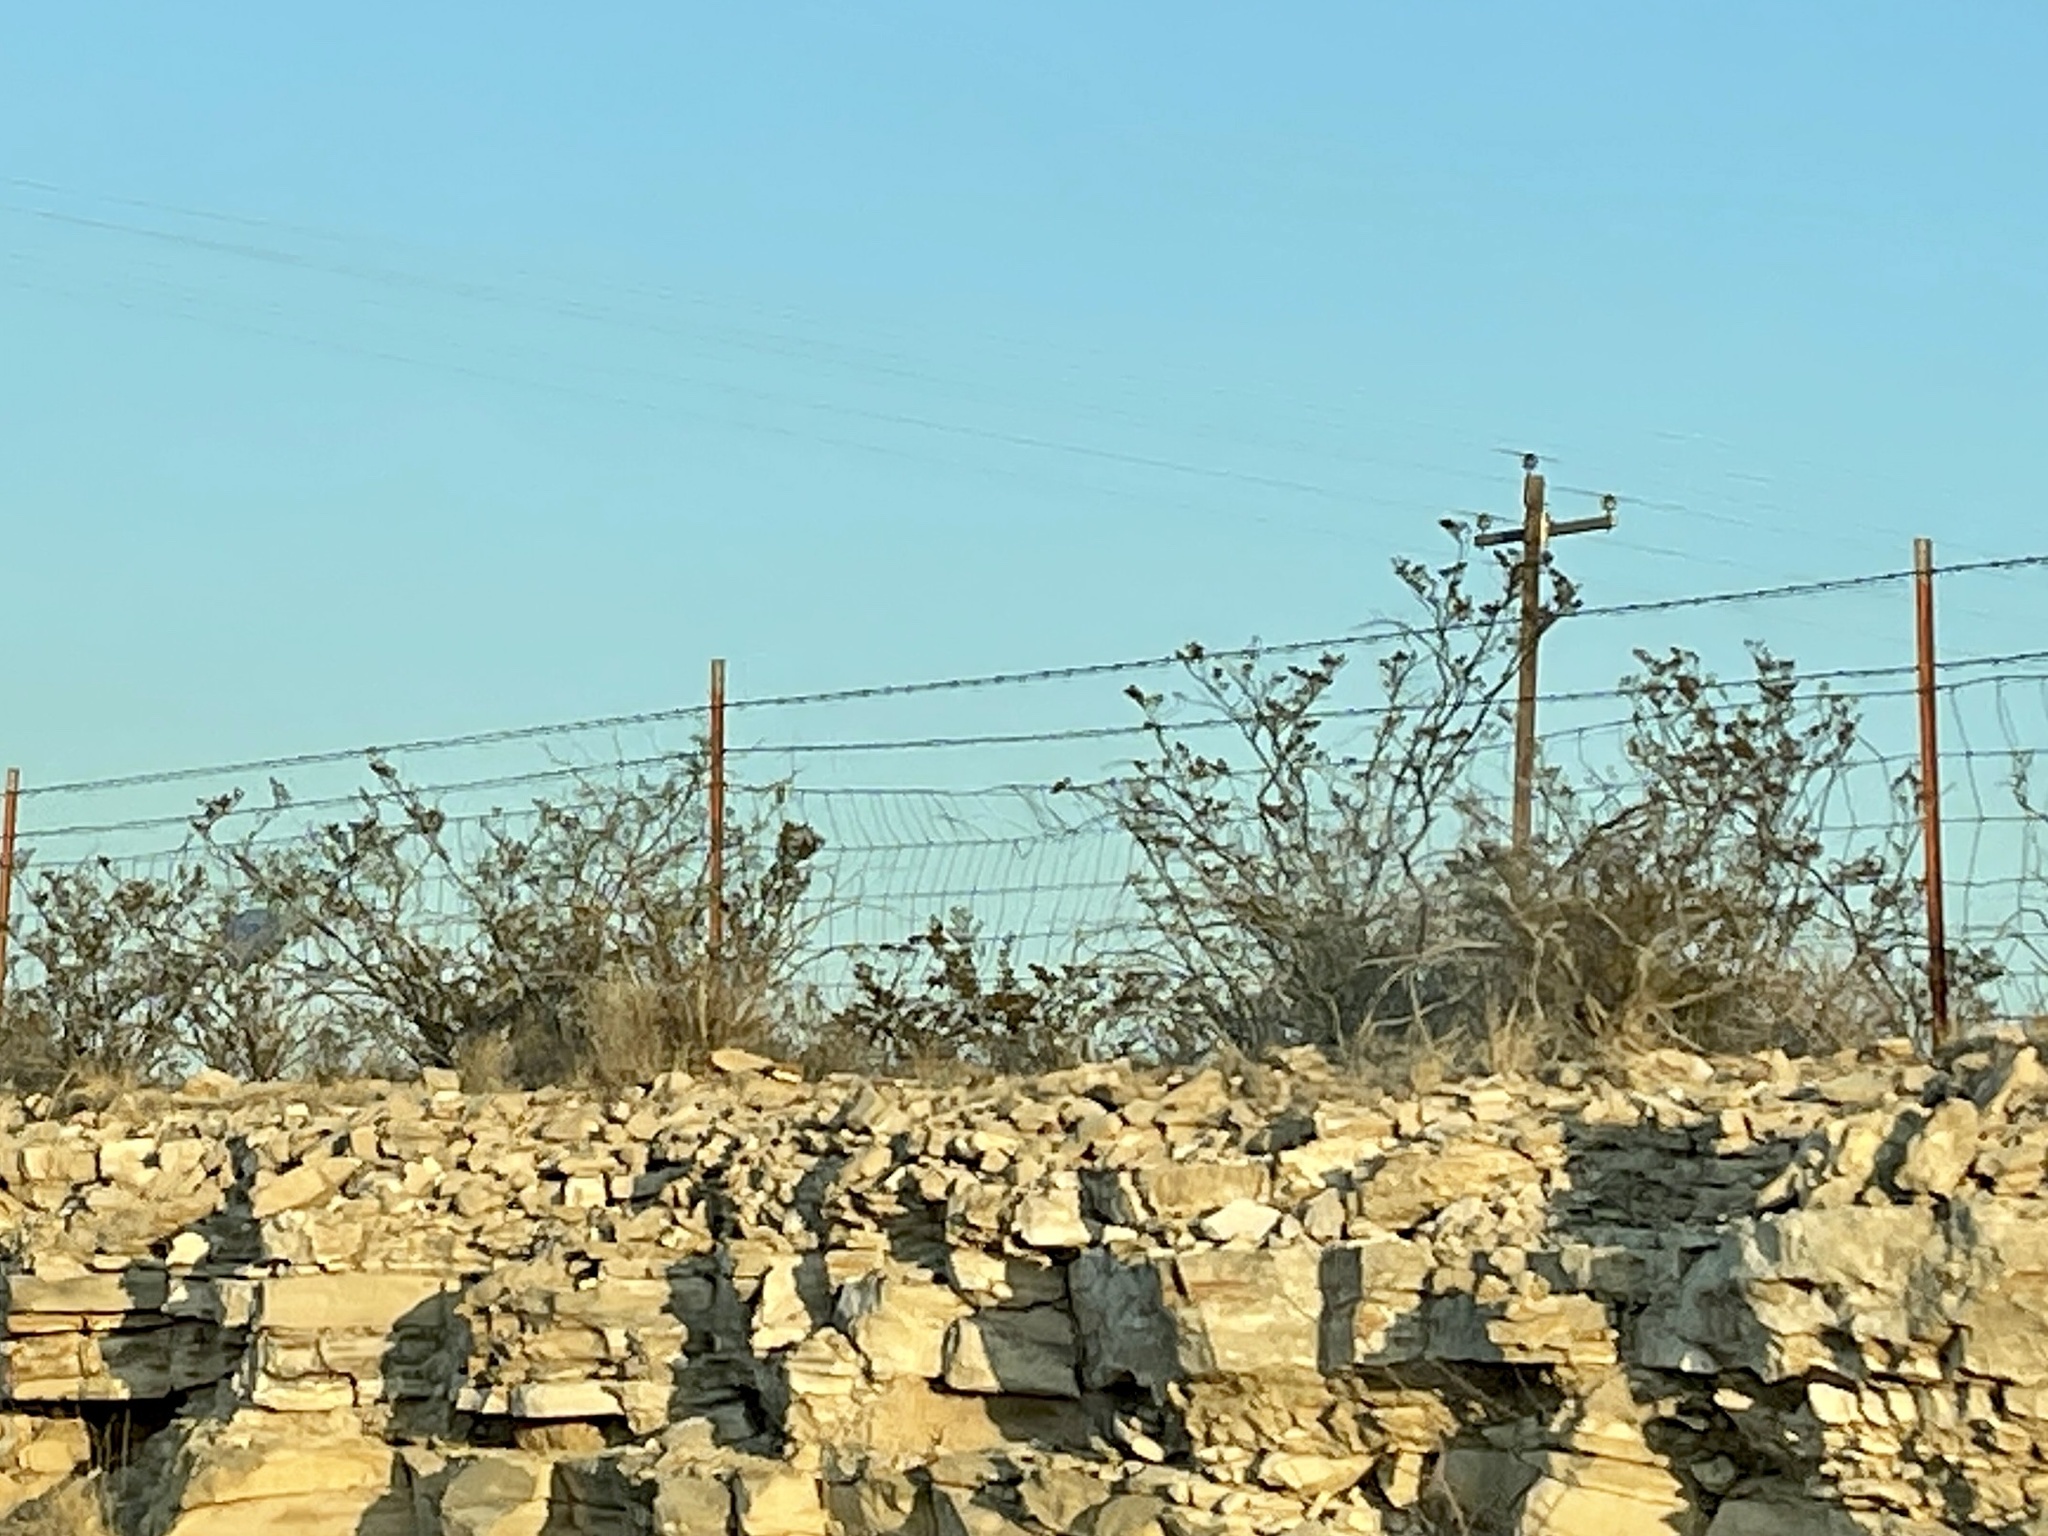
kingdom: Plantae
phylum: Tracheophyta
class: Magnoliopsida
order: Zygophyllales
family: Zygophyllaceae
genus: Larrea
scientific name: Larrea tridentata
